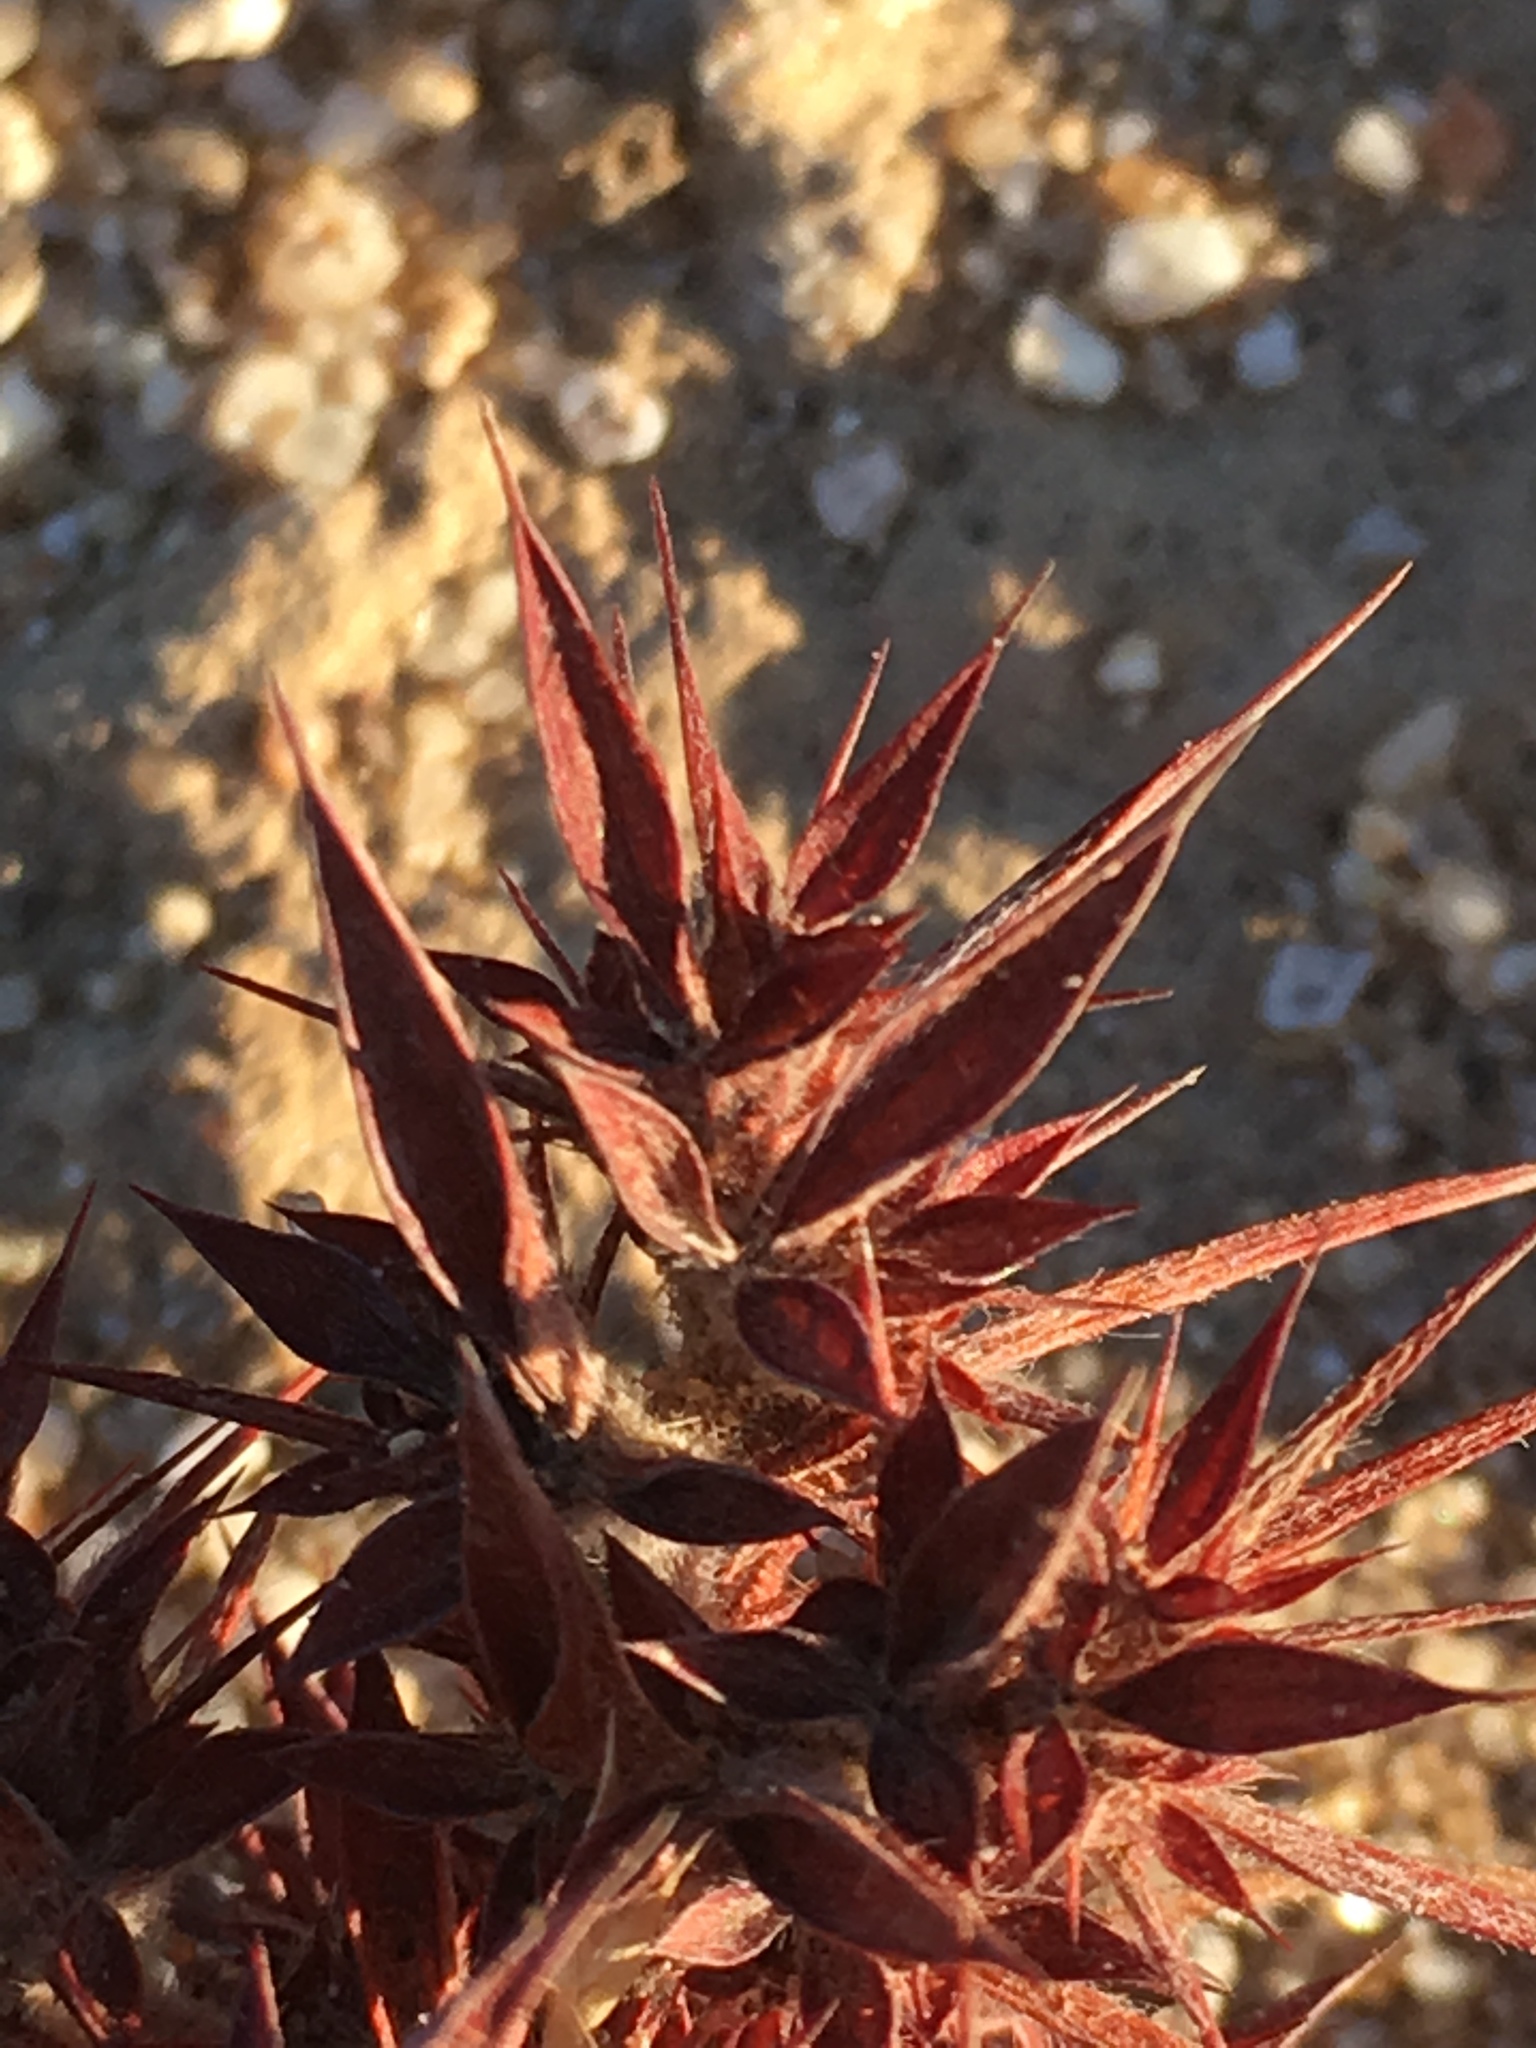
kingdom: Plantae
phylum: Tracheophyta
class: Magnoliopsida
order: Caryophyllales
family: Polygonaceae
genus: Chorizanthe
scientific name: Chorizanthe rigida
